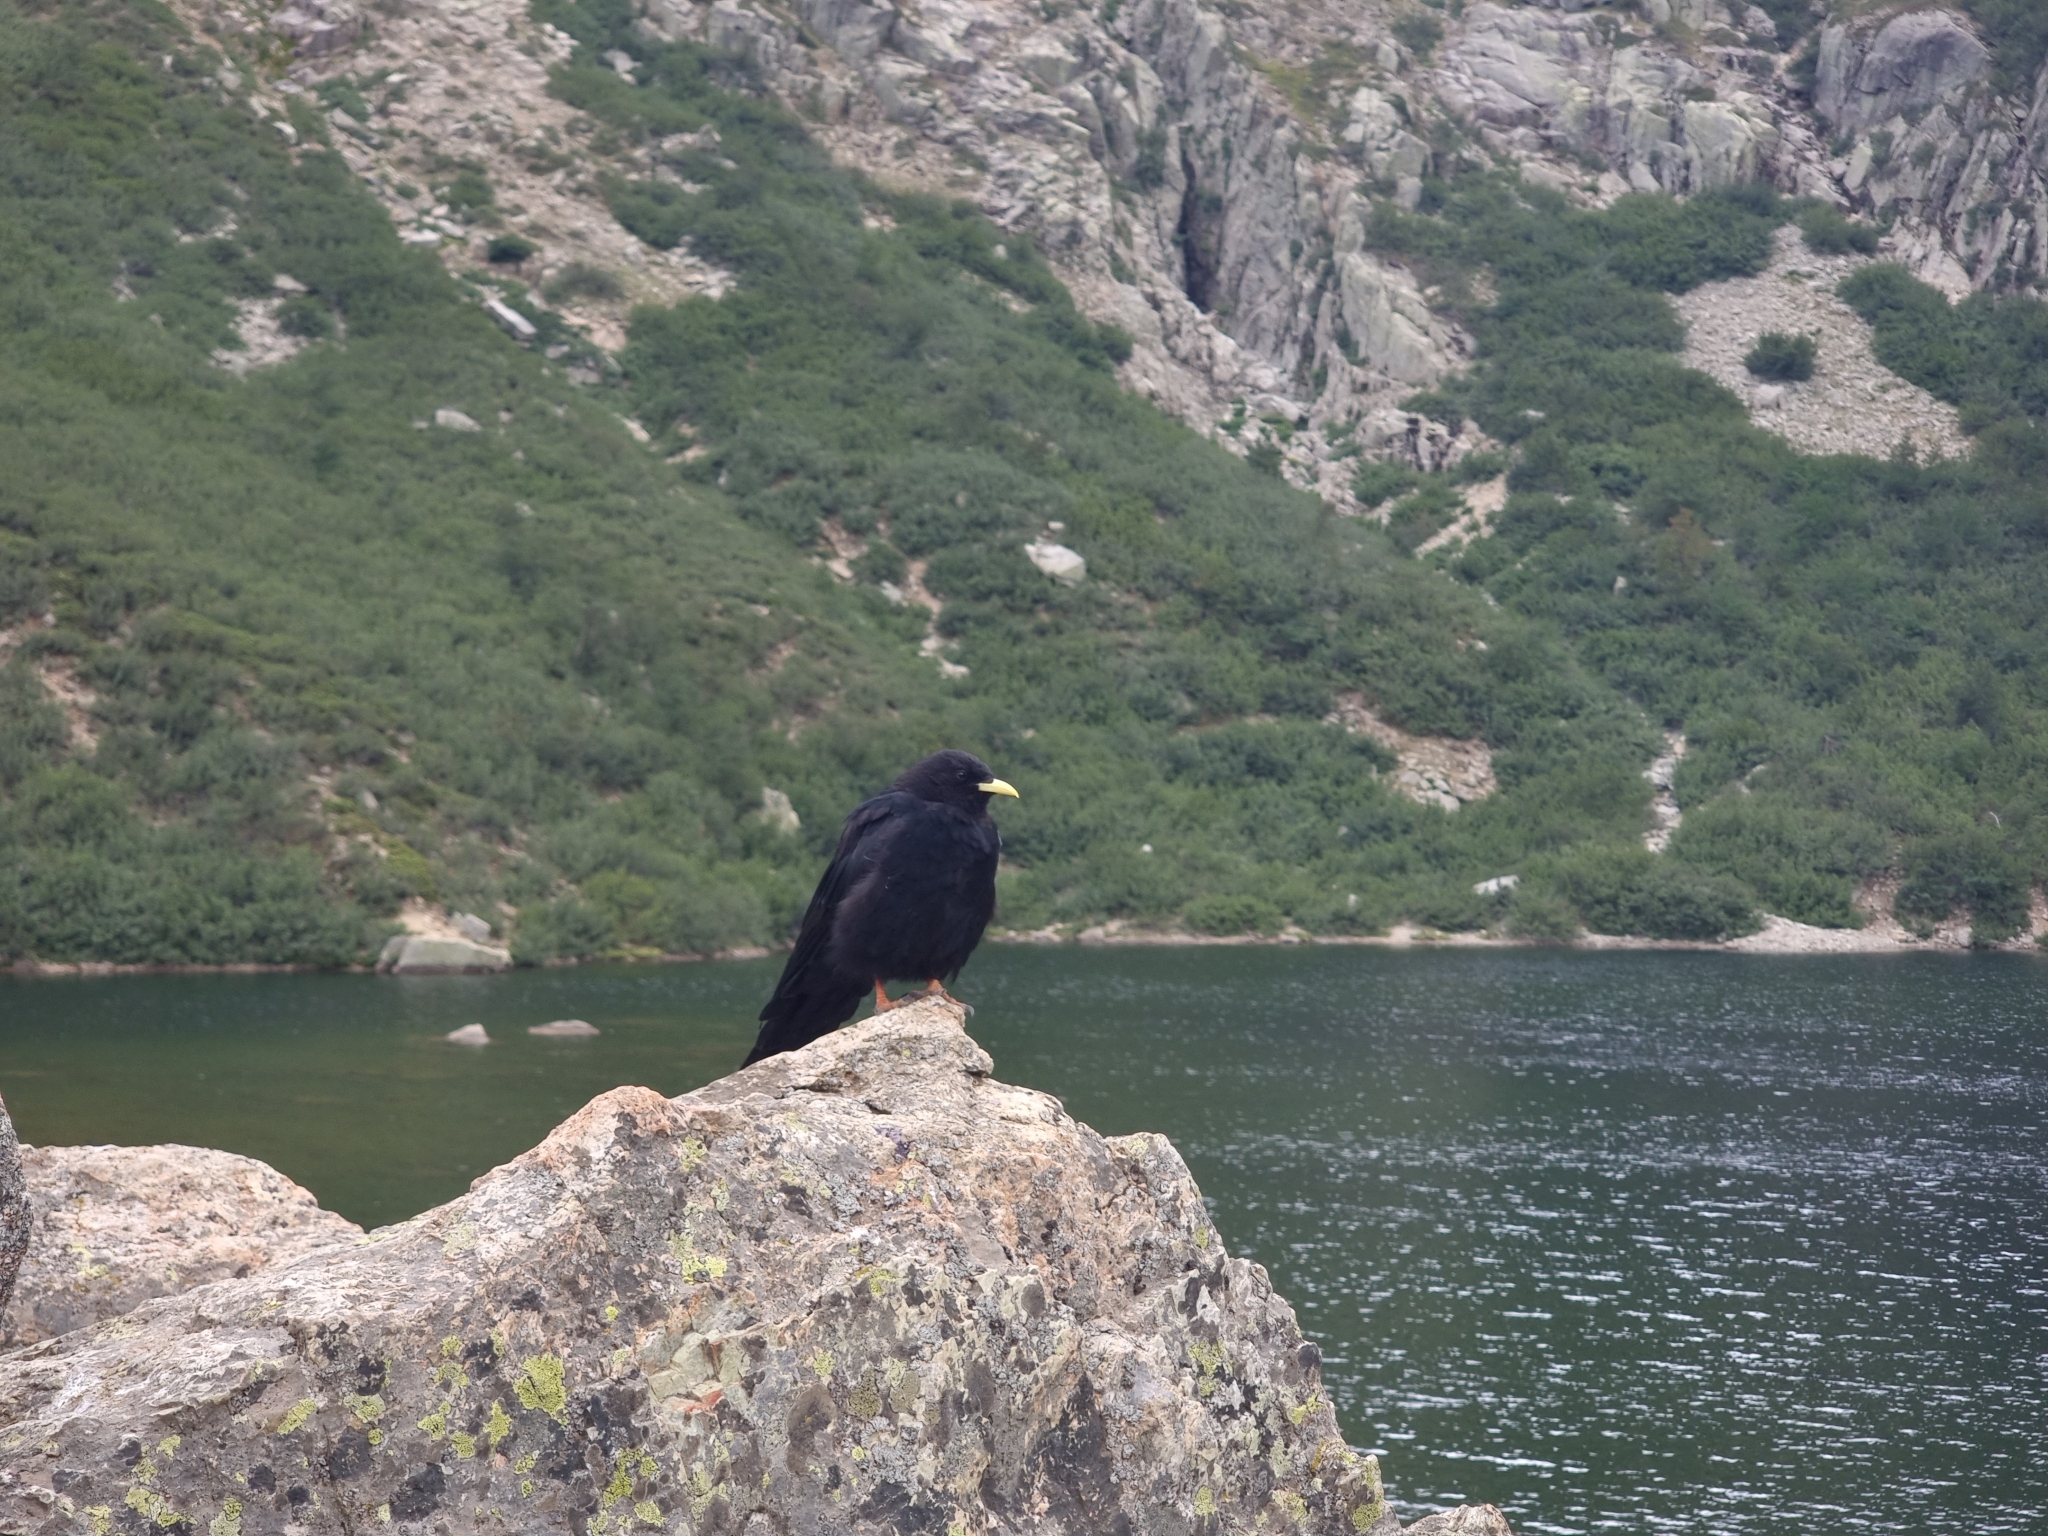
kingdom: Animalia
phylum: Chordata
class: Aves
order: Passeriformes
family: Corvidae
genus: Pyrrhocorax
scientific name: Pyrrhocorax graculus
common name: Alpine chough
